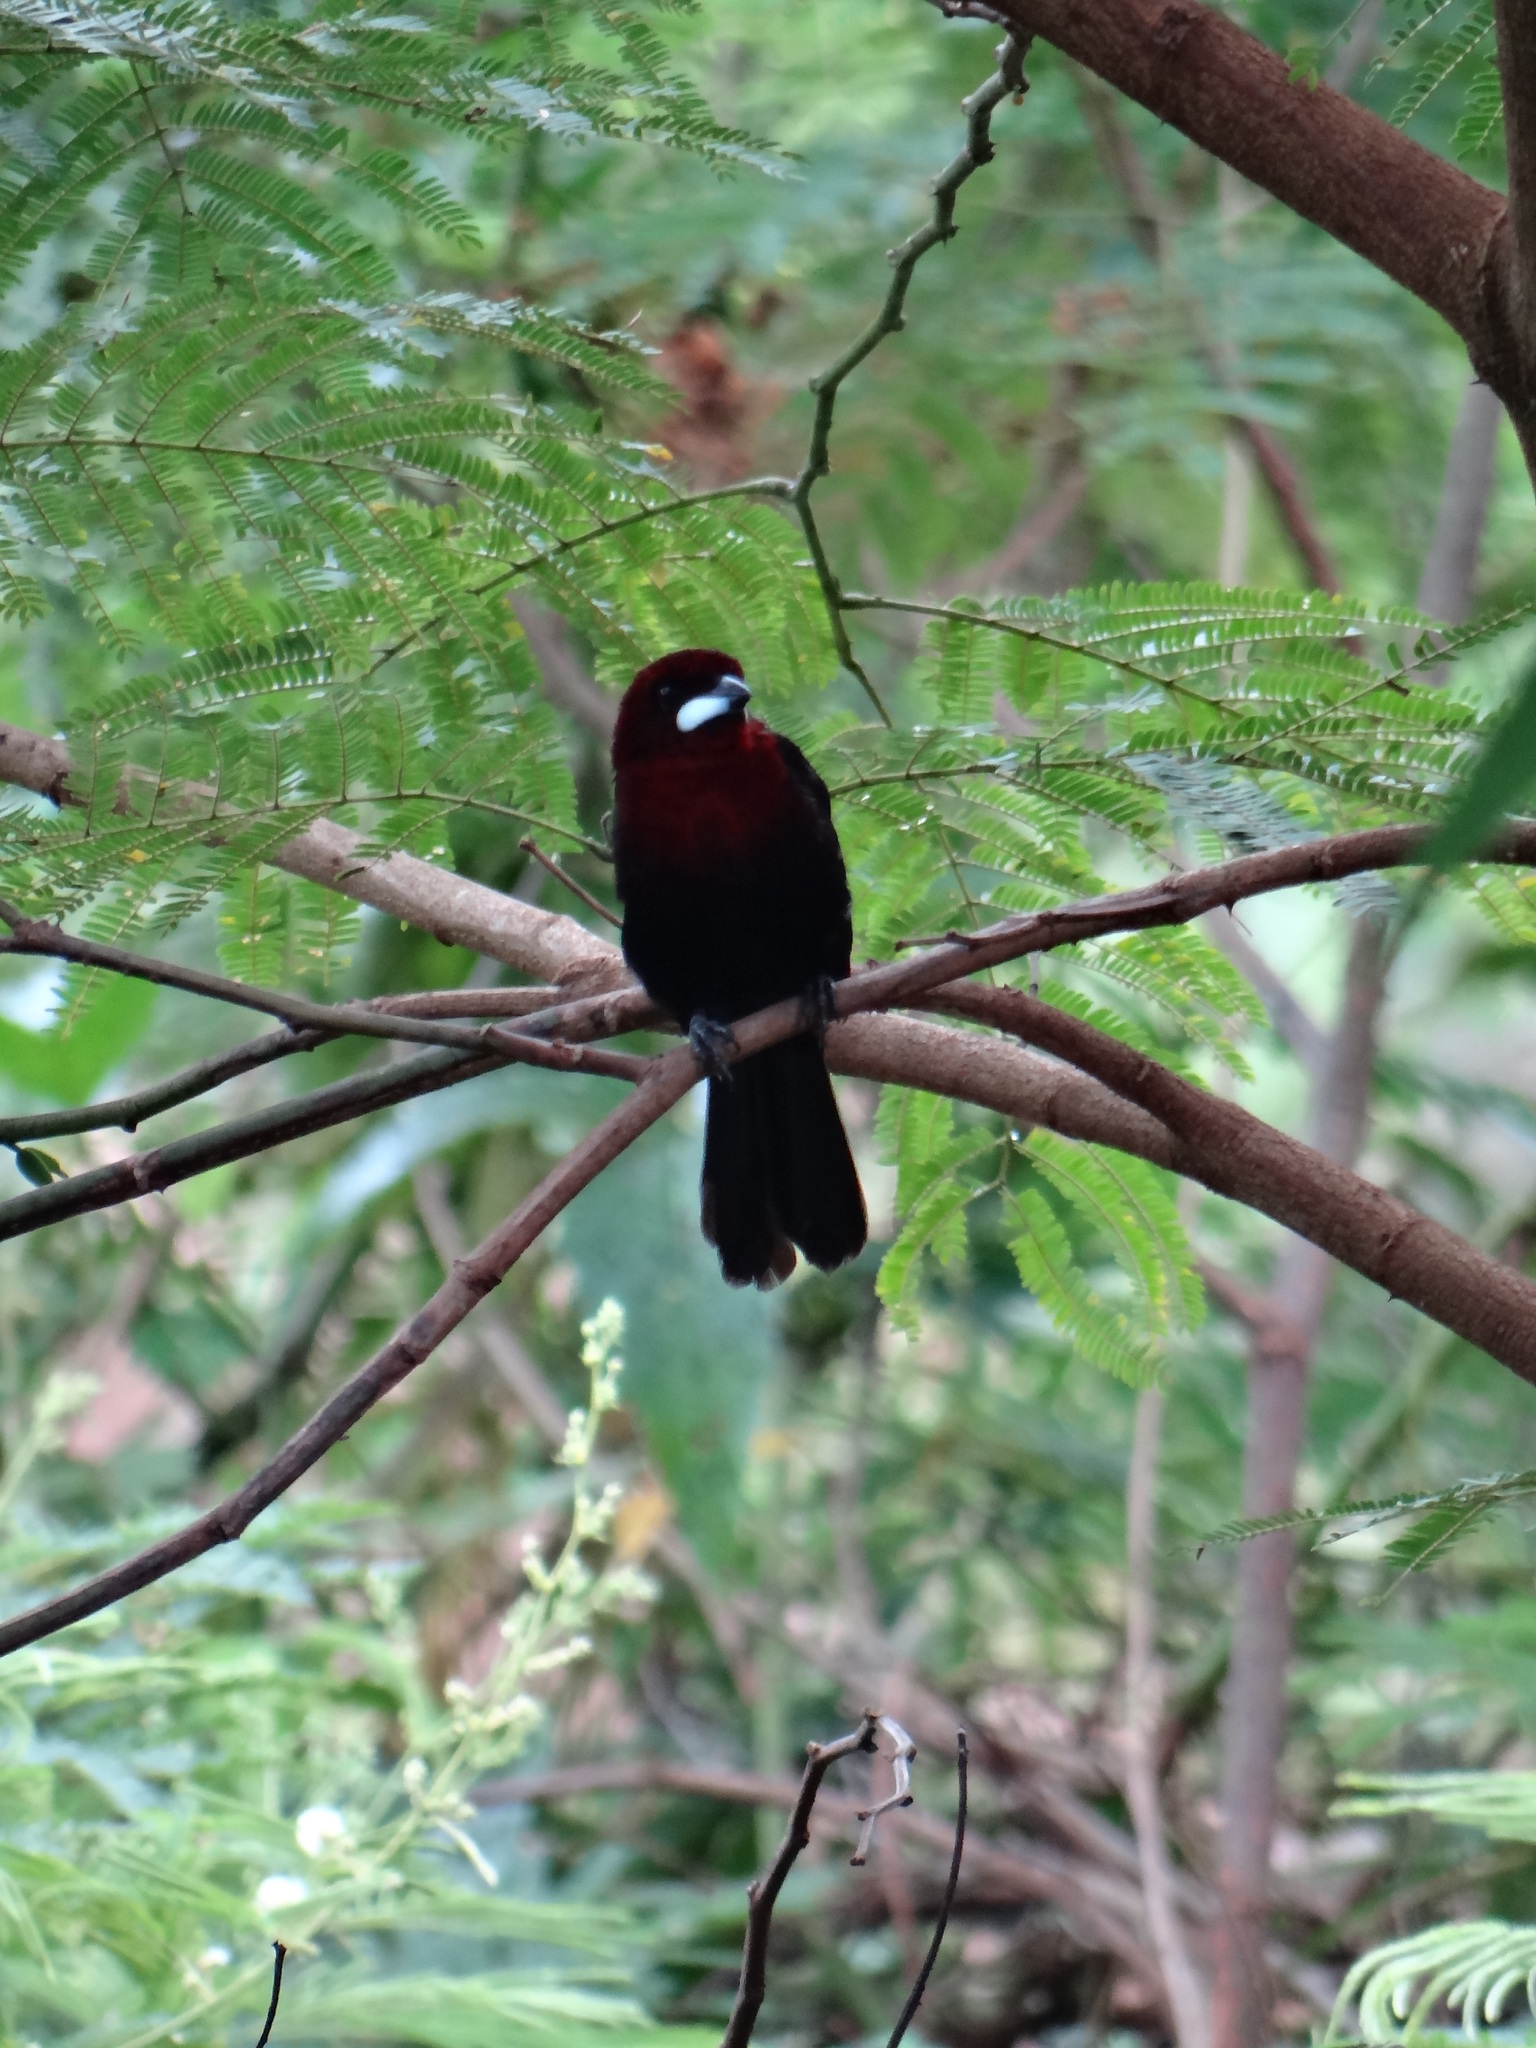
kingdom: Animalia
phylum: Chordata
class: Aves
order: Passeriformes
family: Thraupidae
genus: Ramphocelus
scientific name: Ramphocelus carbo
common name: Silver-beaked tanager
